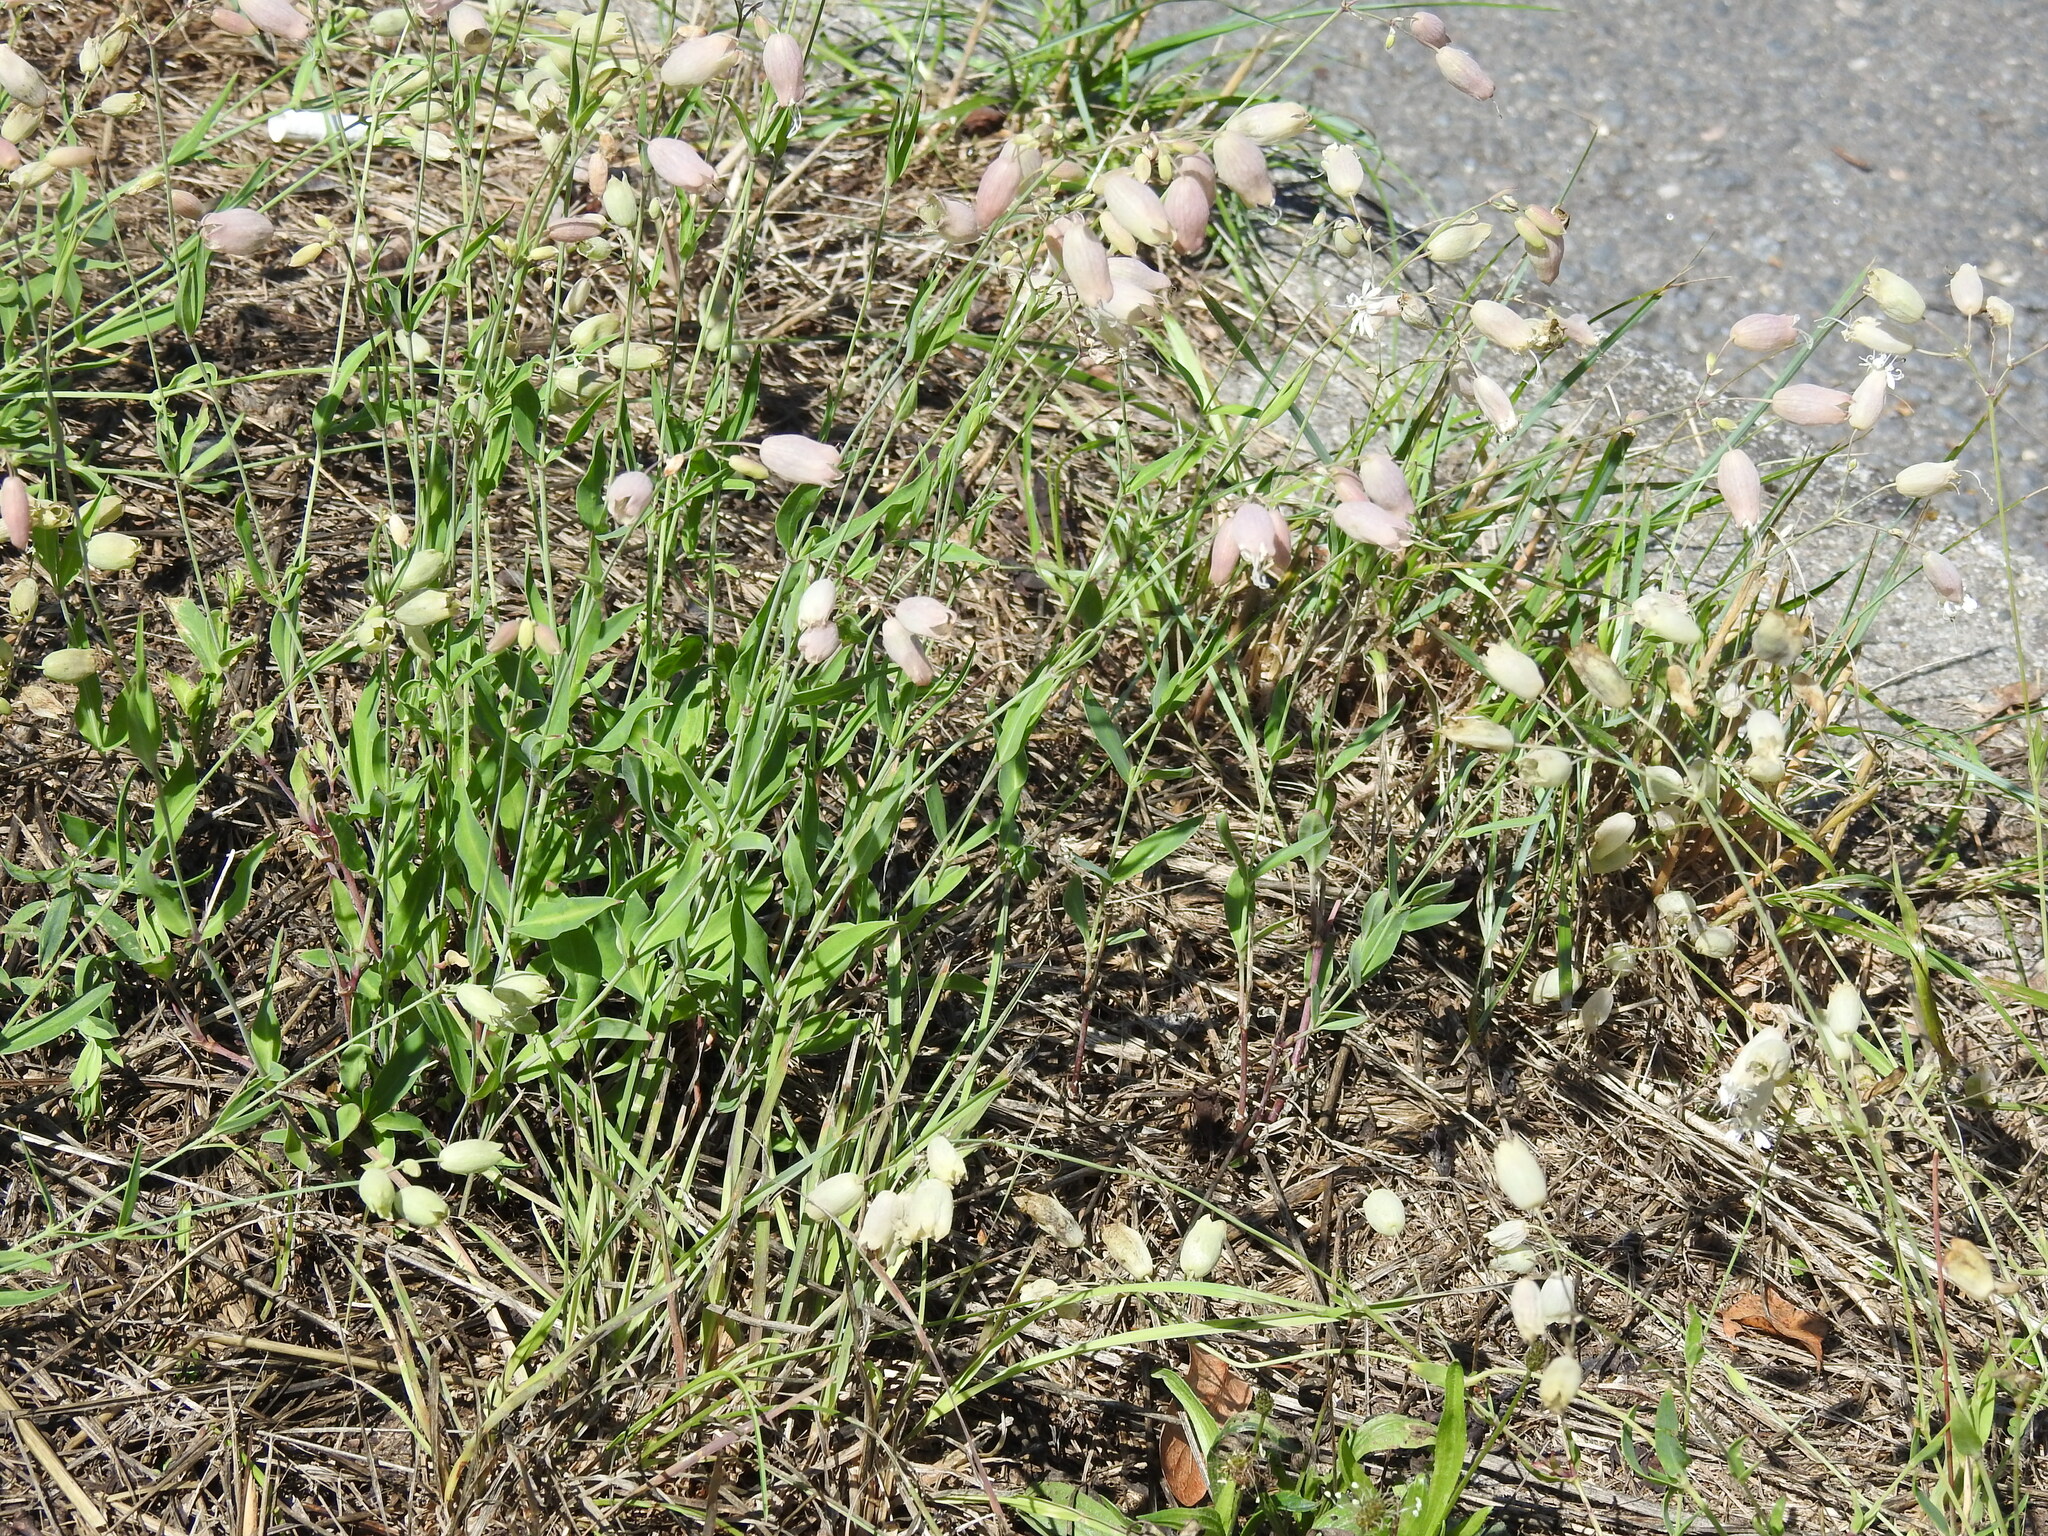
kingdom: Plantae
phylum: Tracheophyta
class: Magnoliopsida
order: Caryophyllales
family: Caryophyllaceae
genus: Silene
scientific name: Silene vulgaris
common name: Bladder campion
